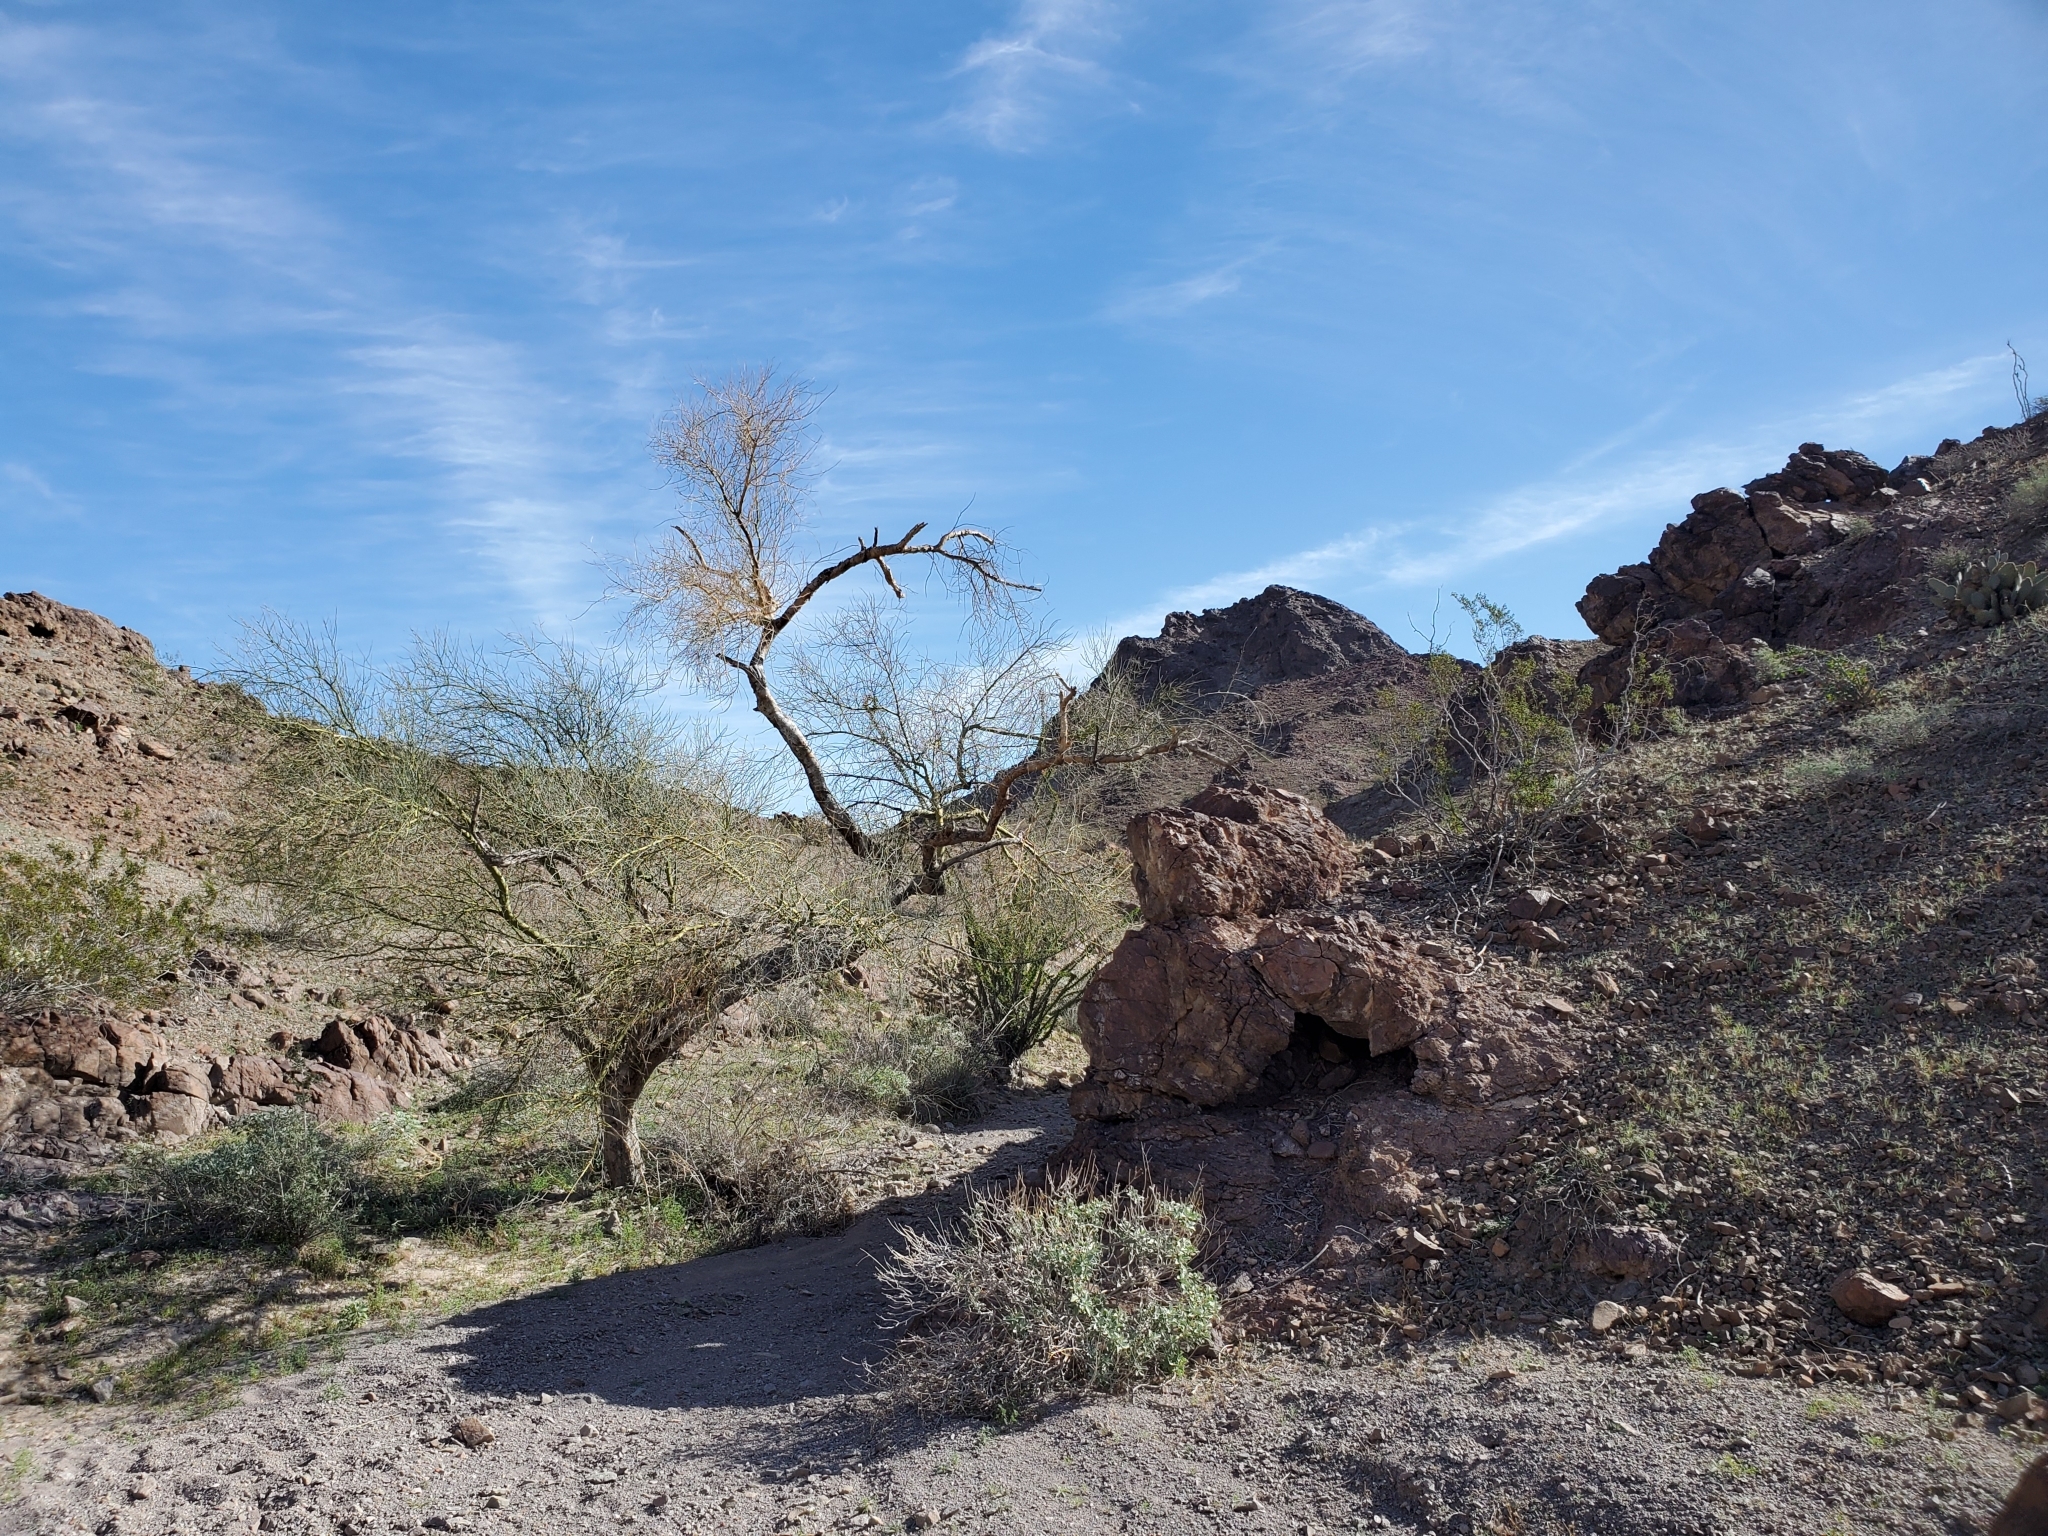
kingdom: Plantae
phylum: Tracheophyta
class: Magnoliopsida
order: Fabales
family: Fabaceae
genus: Parkinsonia
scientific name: Parkinsonia florida
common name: Blue paloverde
